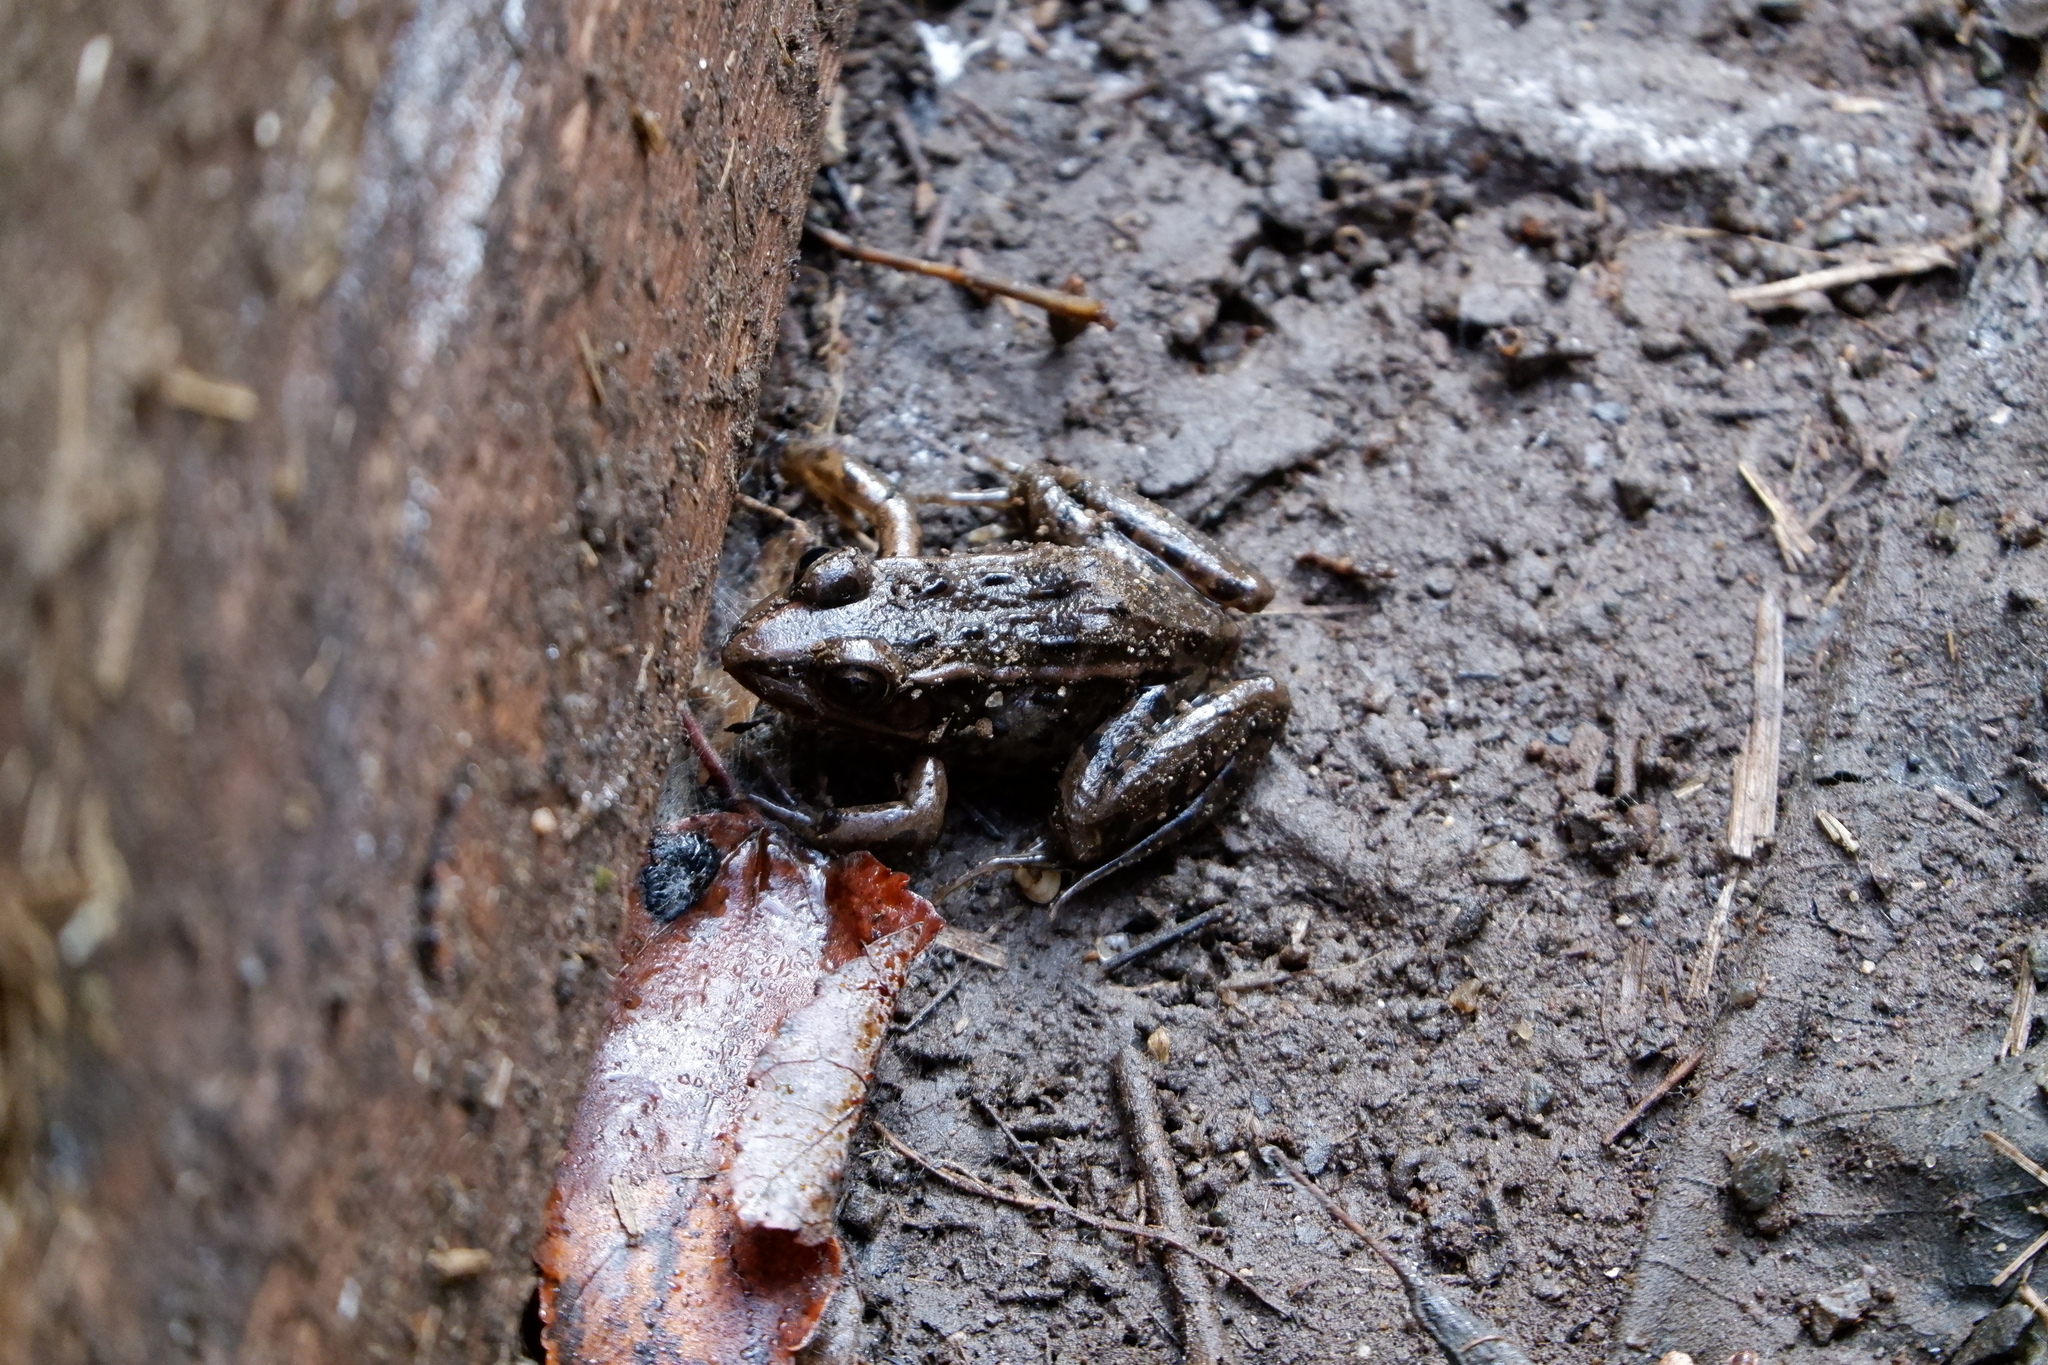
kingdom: Animalia
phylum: Chordata
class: Amphibia
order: Anura
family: Ranidae
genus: Lithobates
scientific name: Lithobates kauffeldi
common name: Mid-atlantic coast leopard frog
